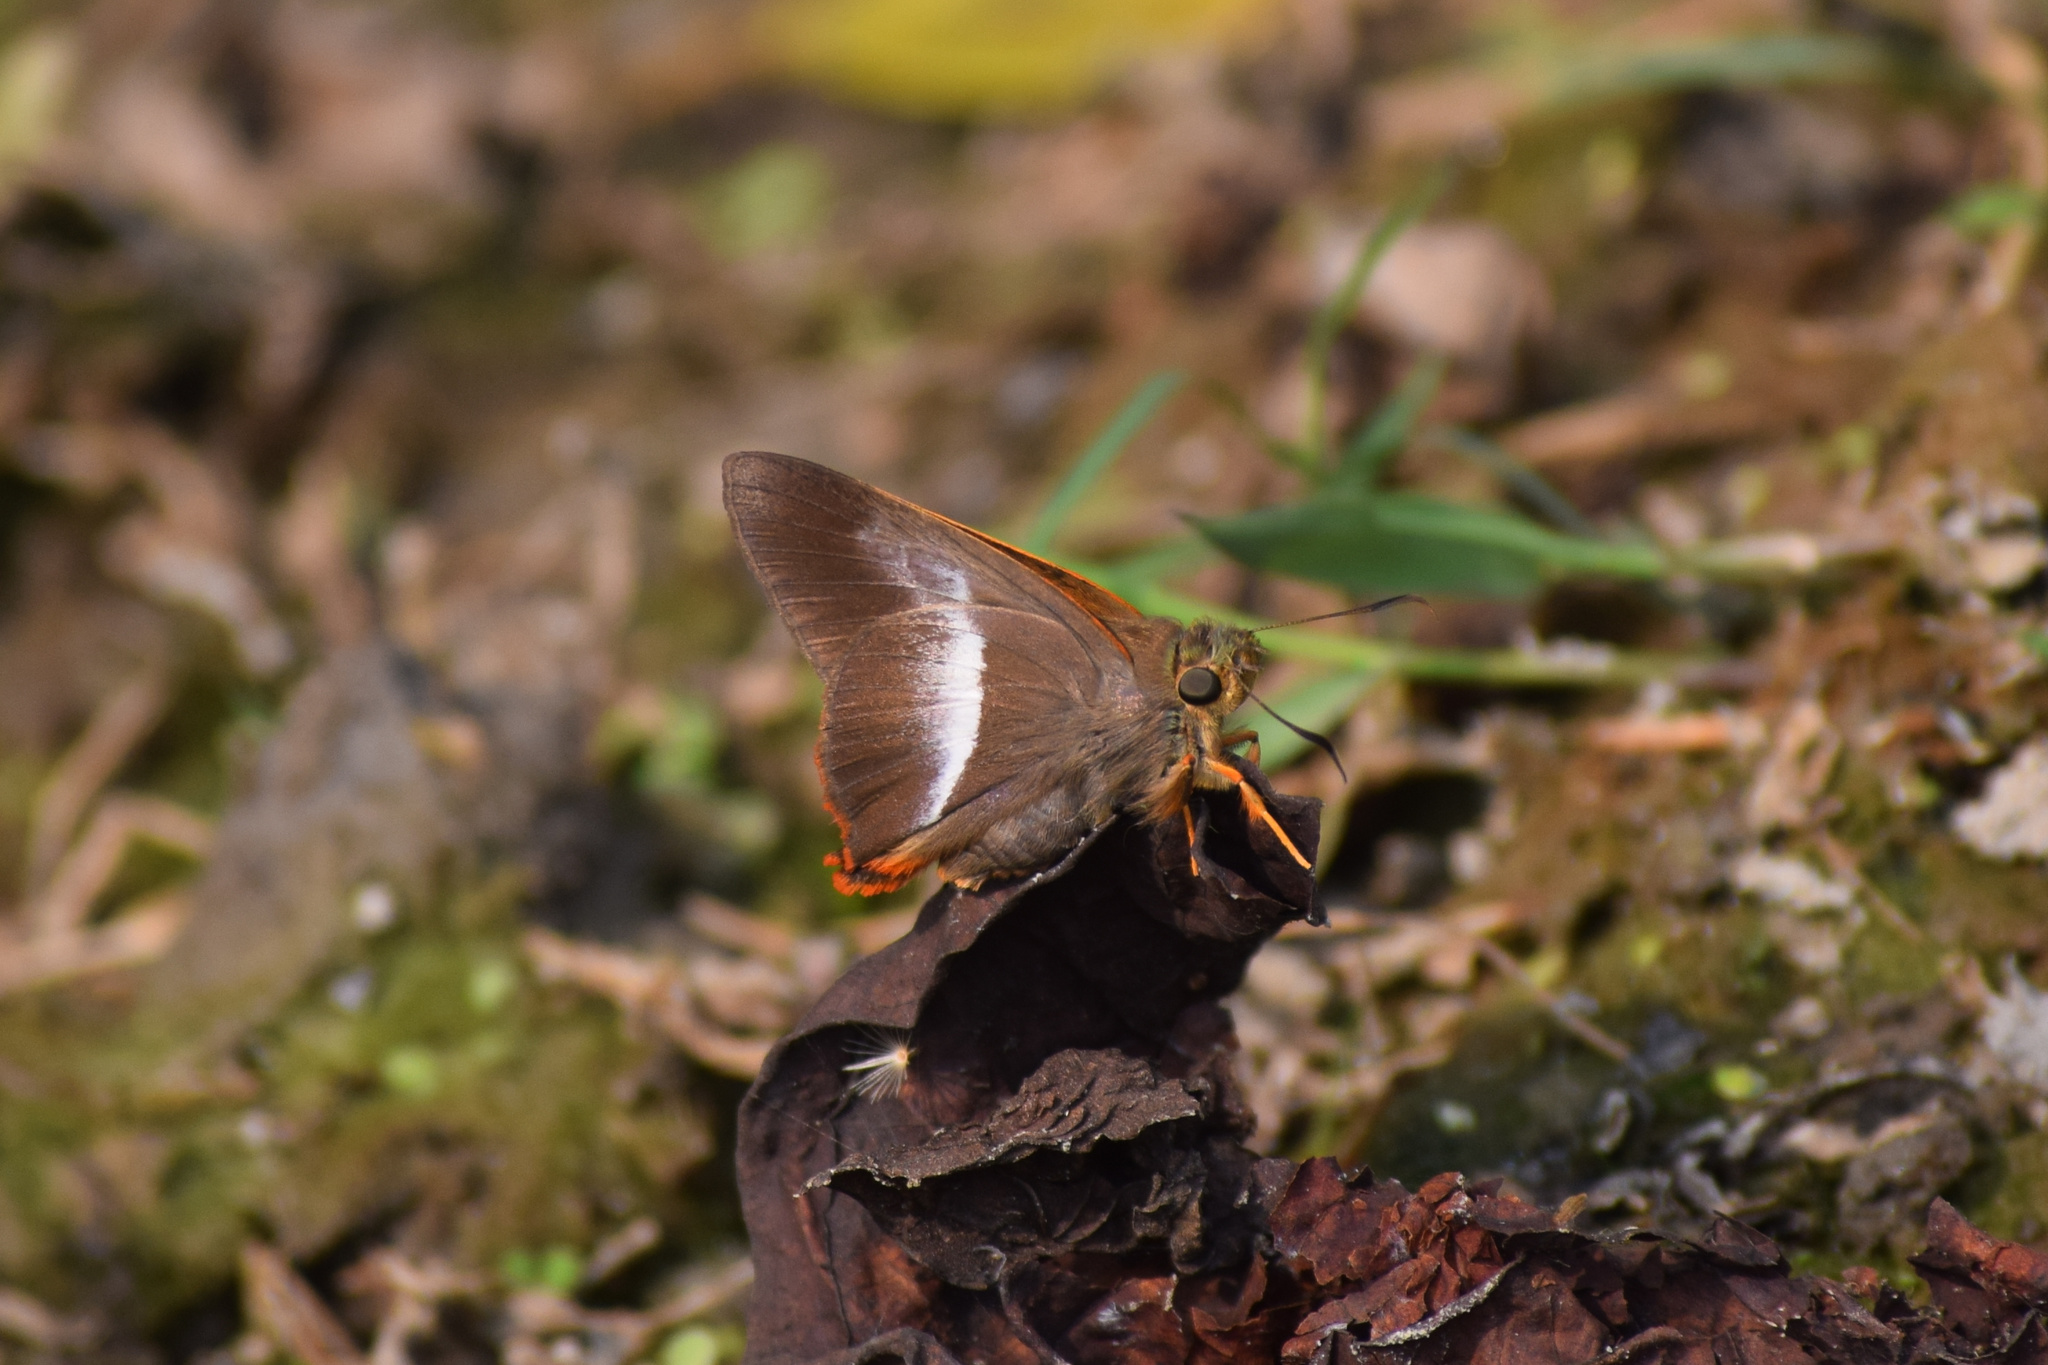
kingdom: Animalia
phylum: Arthropoda
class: Insecta
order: Lepidoptera
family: Hesperiidae
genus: Bibasis
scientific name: Bibasis sena
